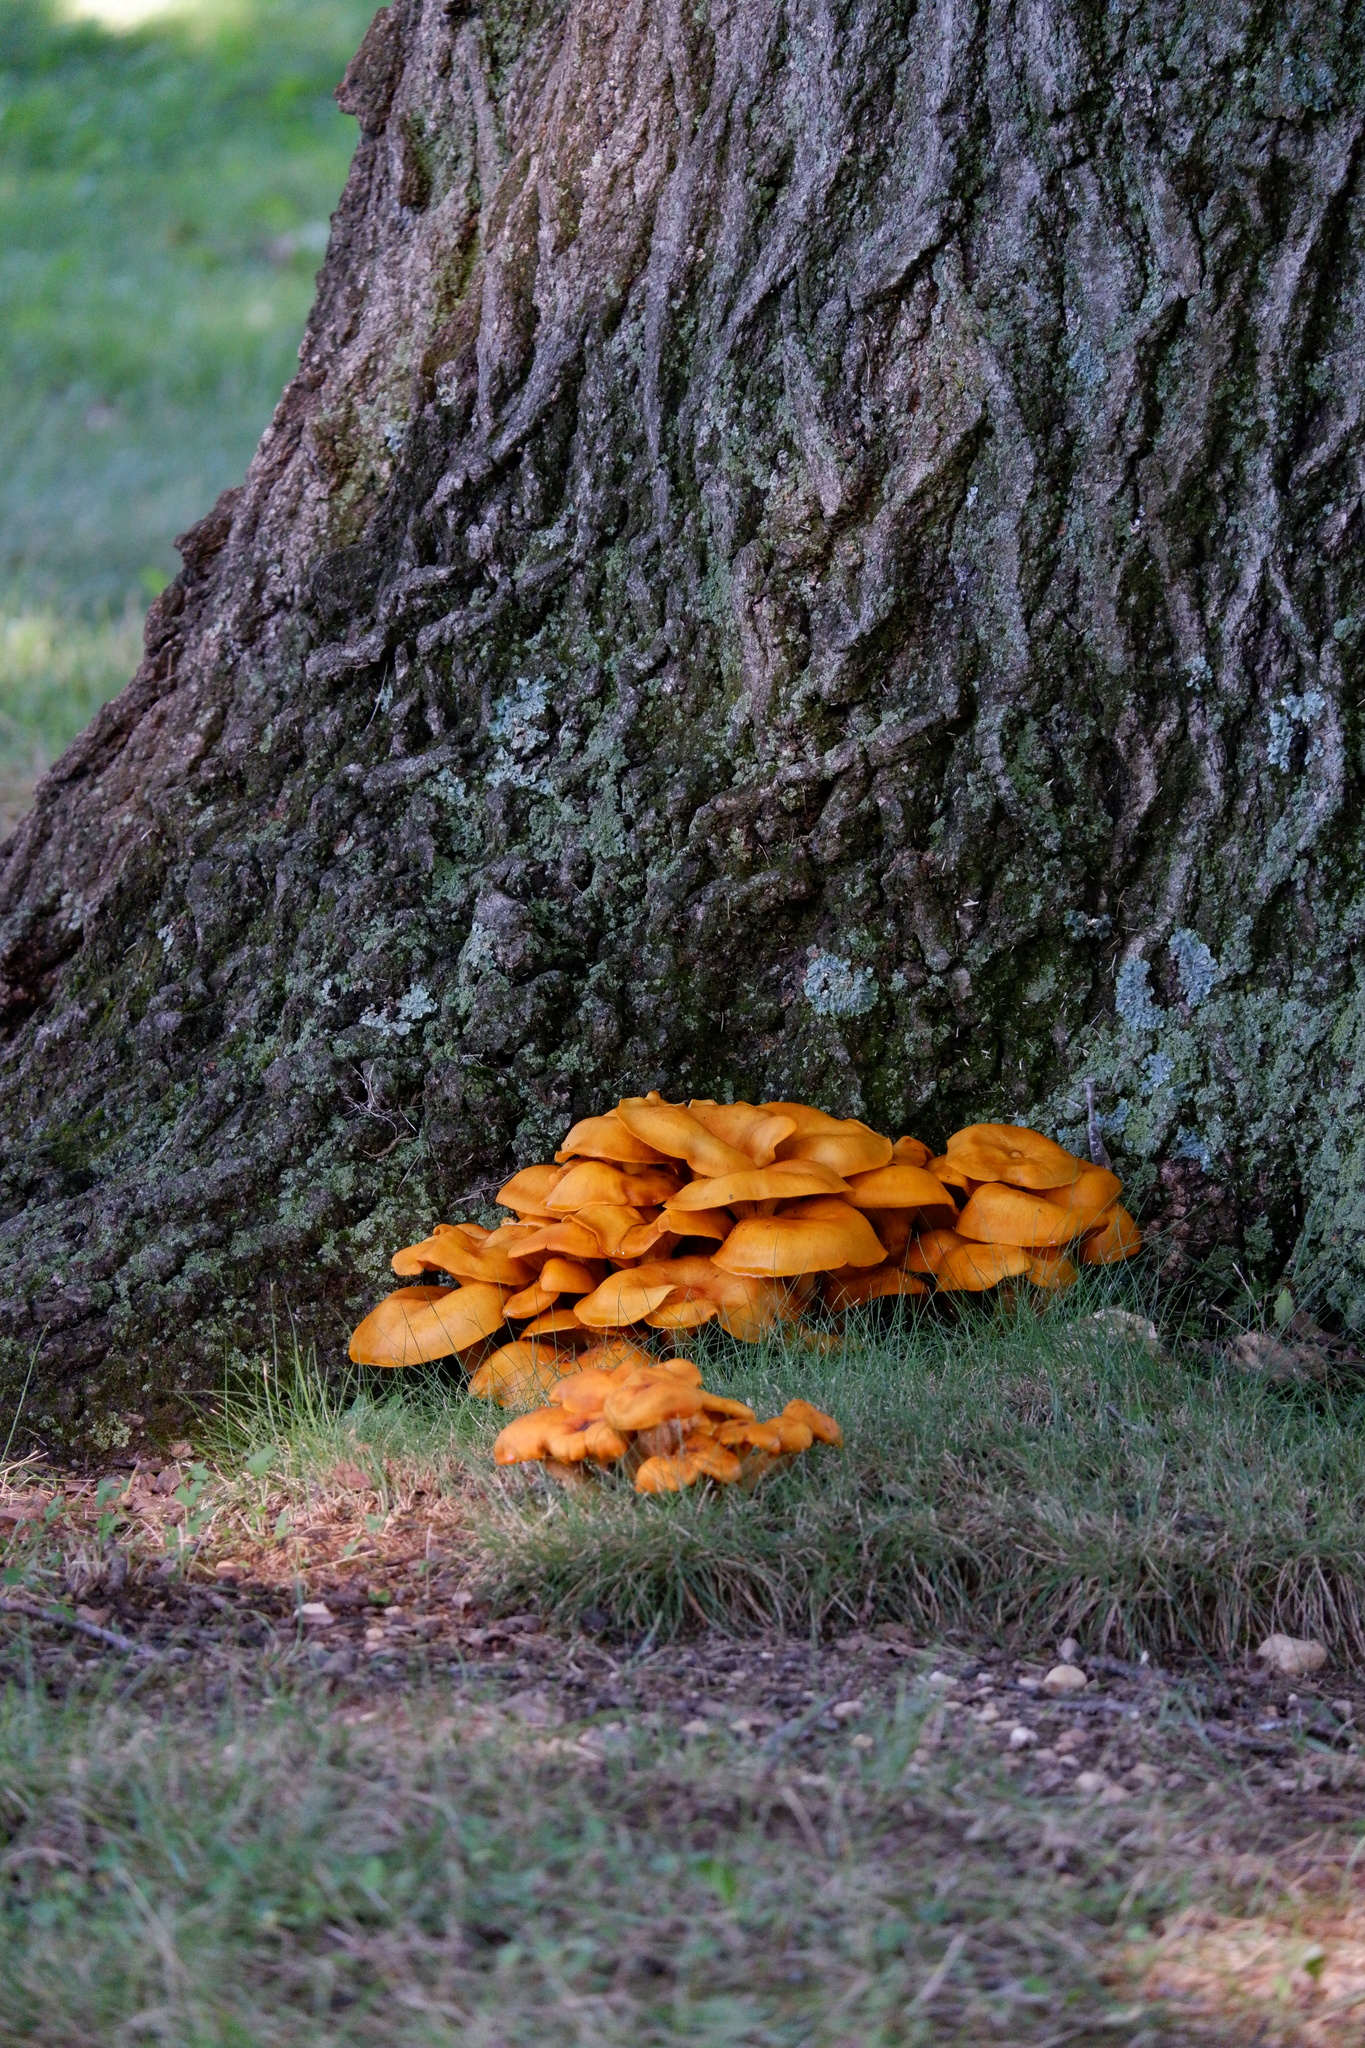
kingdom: Fungi
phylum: Basidiomycota
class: Agaricomycetes
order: Agaricales
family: Omphalotaceae
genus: Omphalotus
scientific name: Omphalotus illudens
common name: Jack o lantern
